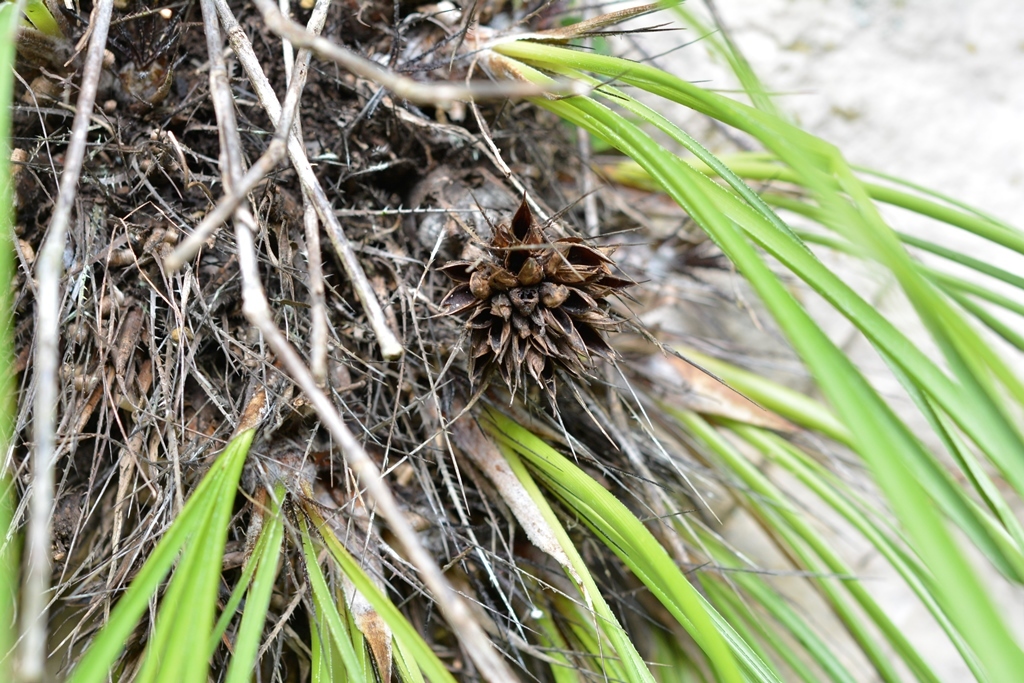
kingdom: Plantae
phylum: Tracheophyta
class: Liliopsida
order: Poales
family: Bromeliaceae
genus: Pitcairnia
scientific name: Pitcairnia heterophylla
